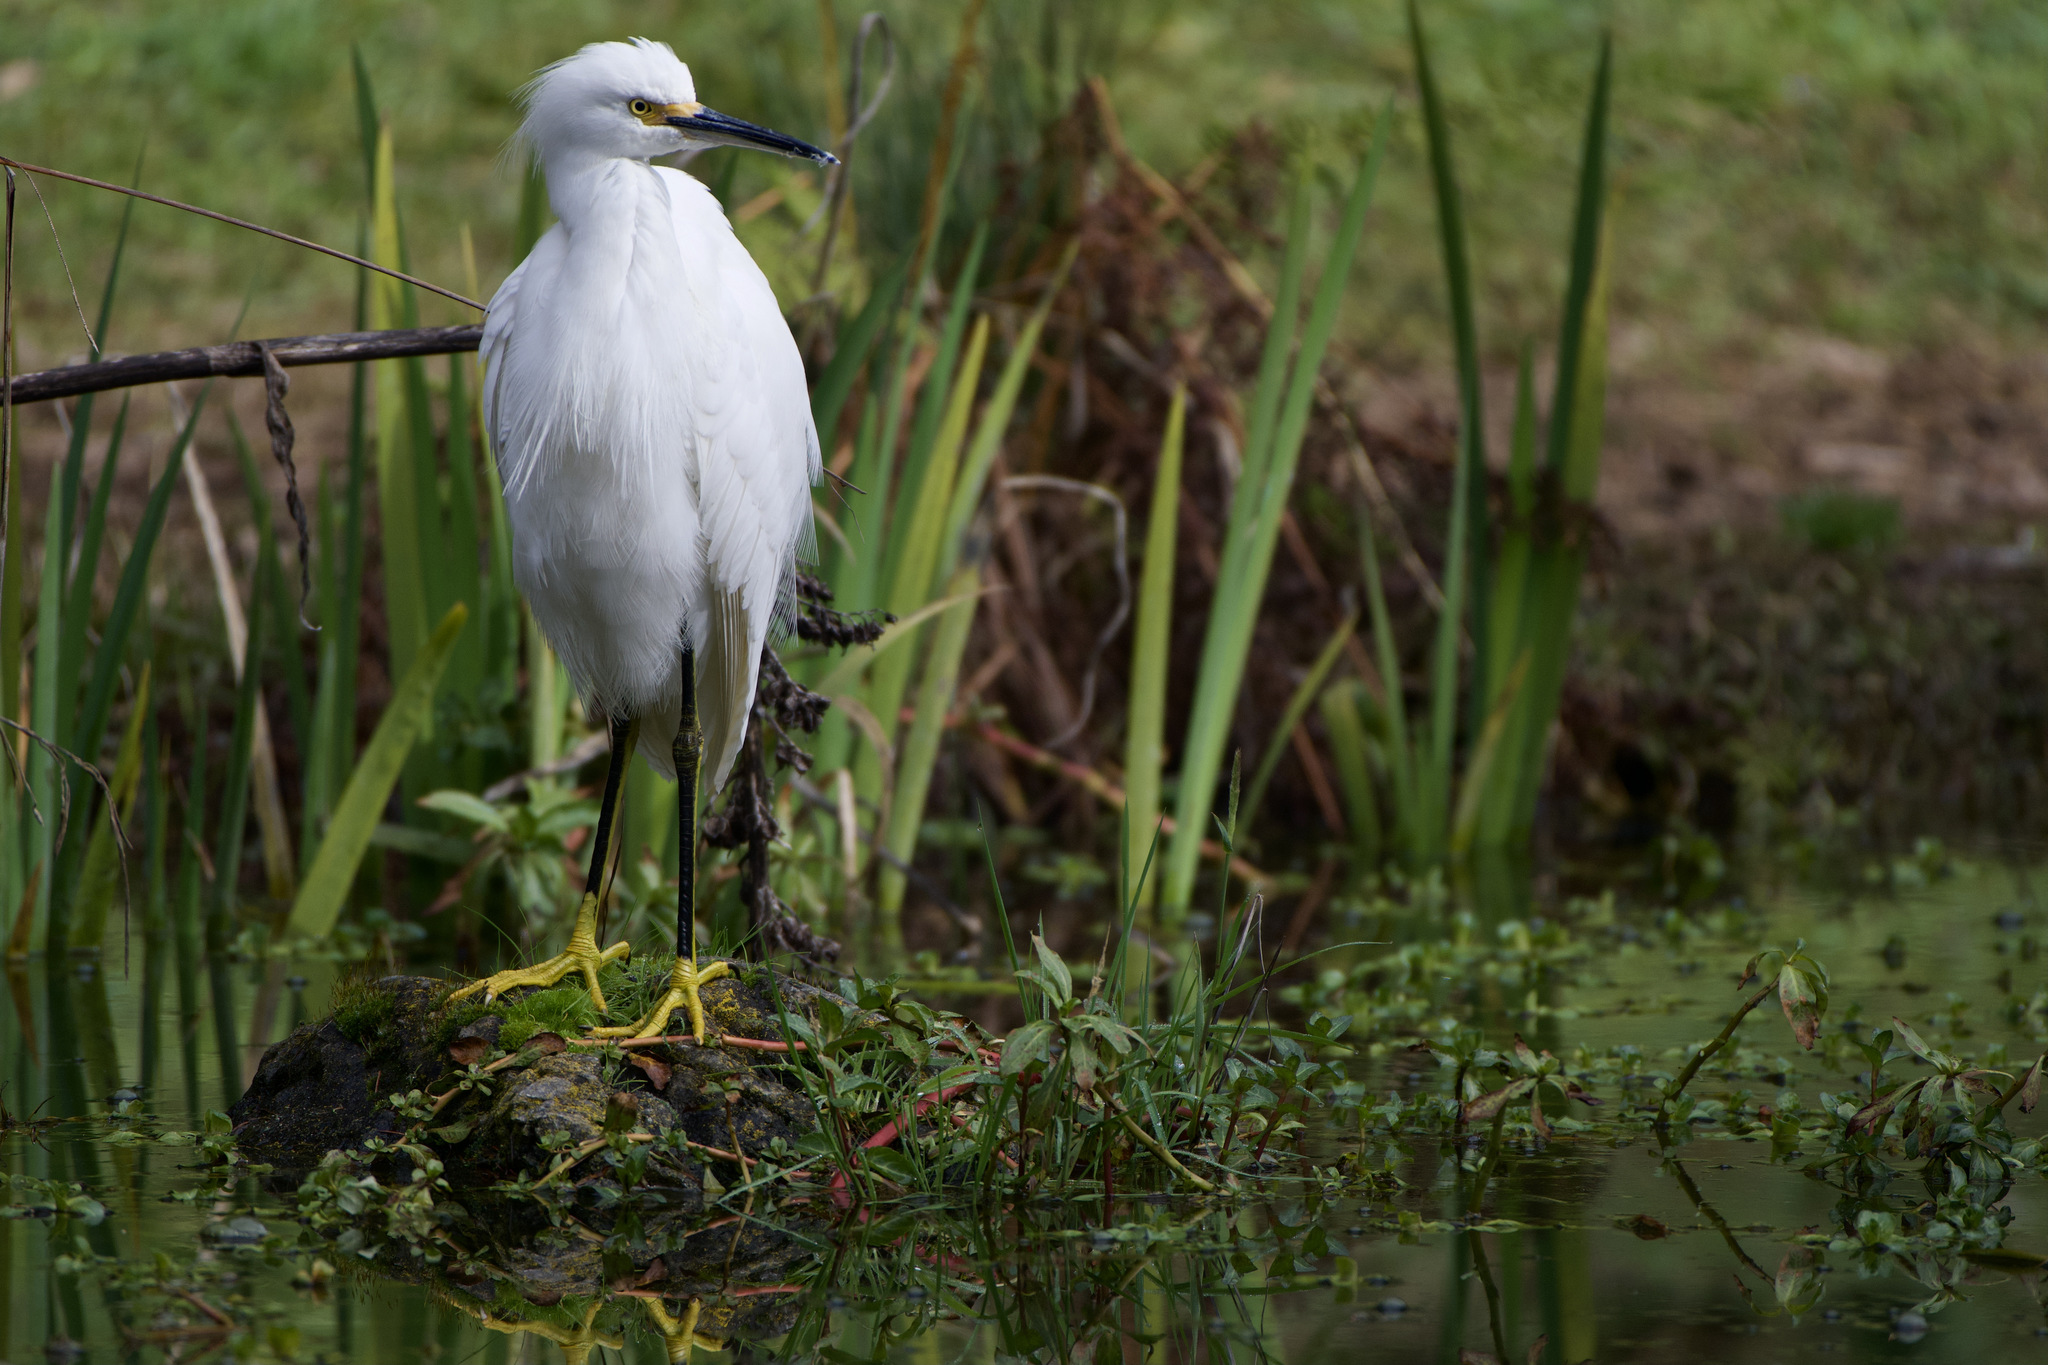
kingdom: Animalia
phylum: Chordata
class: Aves
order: Pelecaniformes
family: Ardeidae
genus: Egretta
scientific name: Egretta thula
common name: Snowy egret
